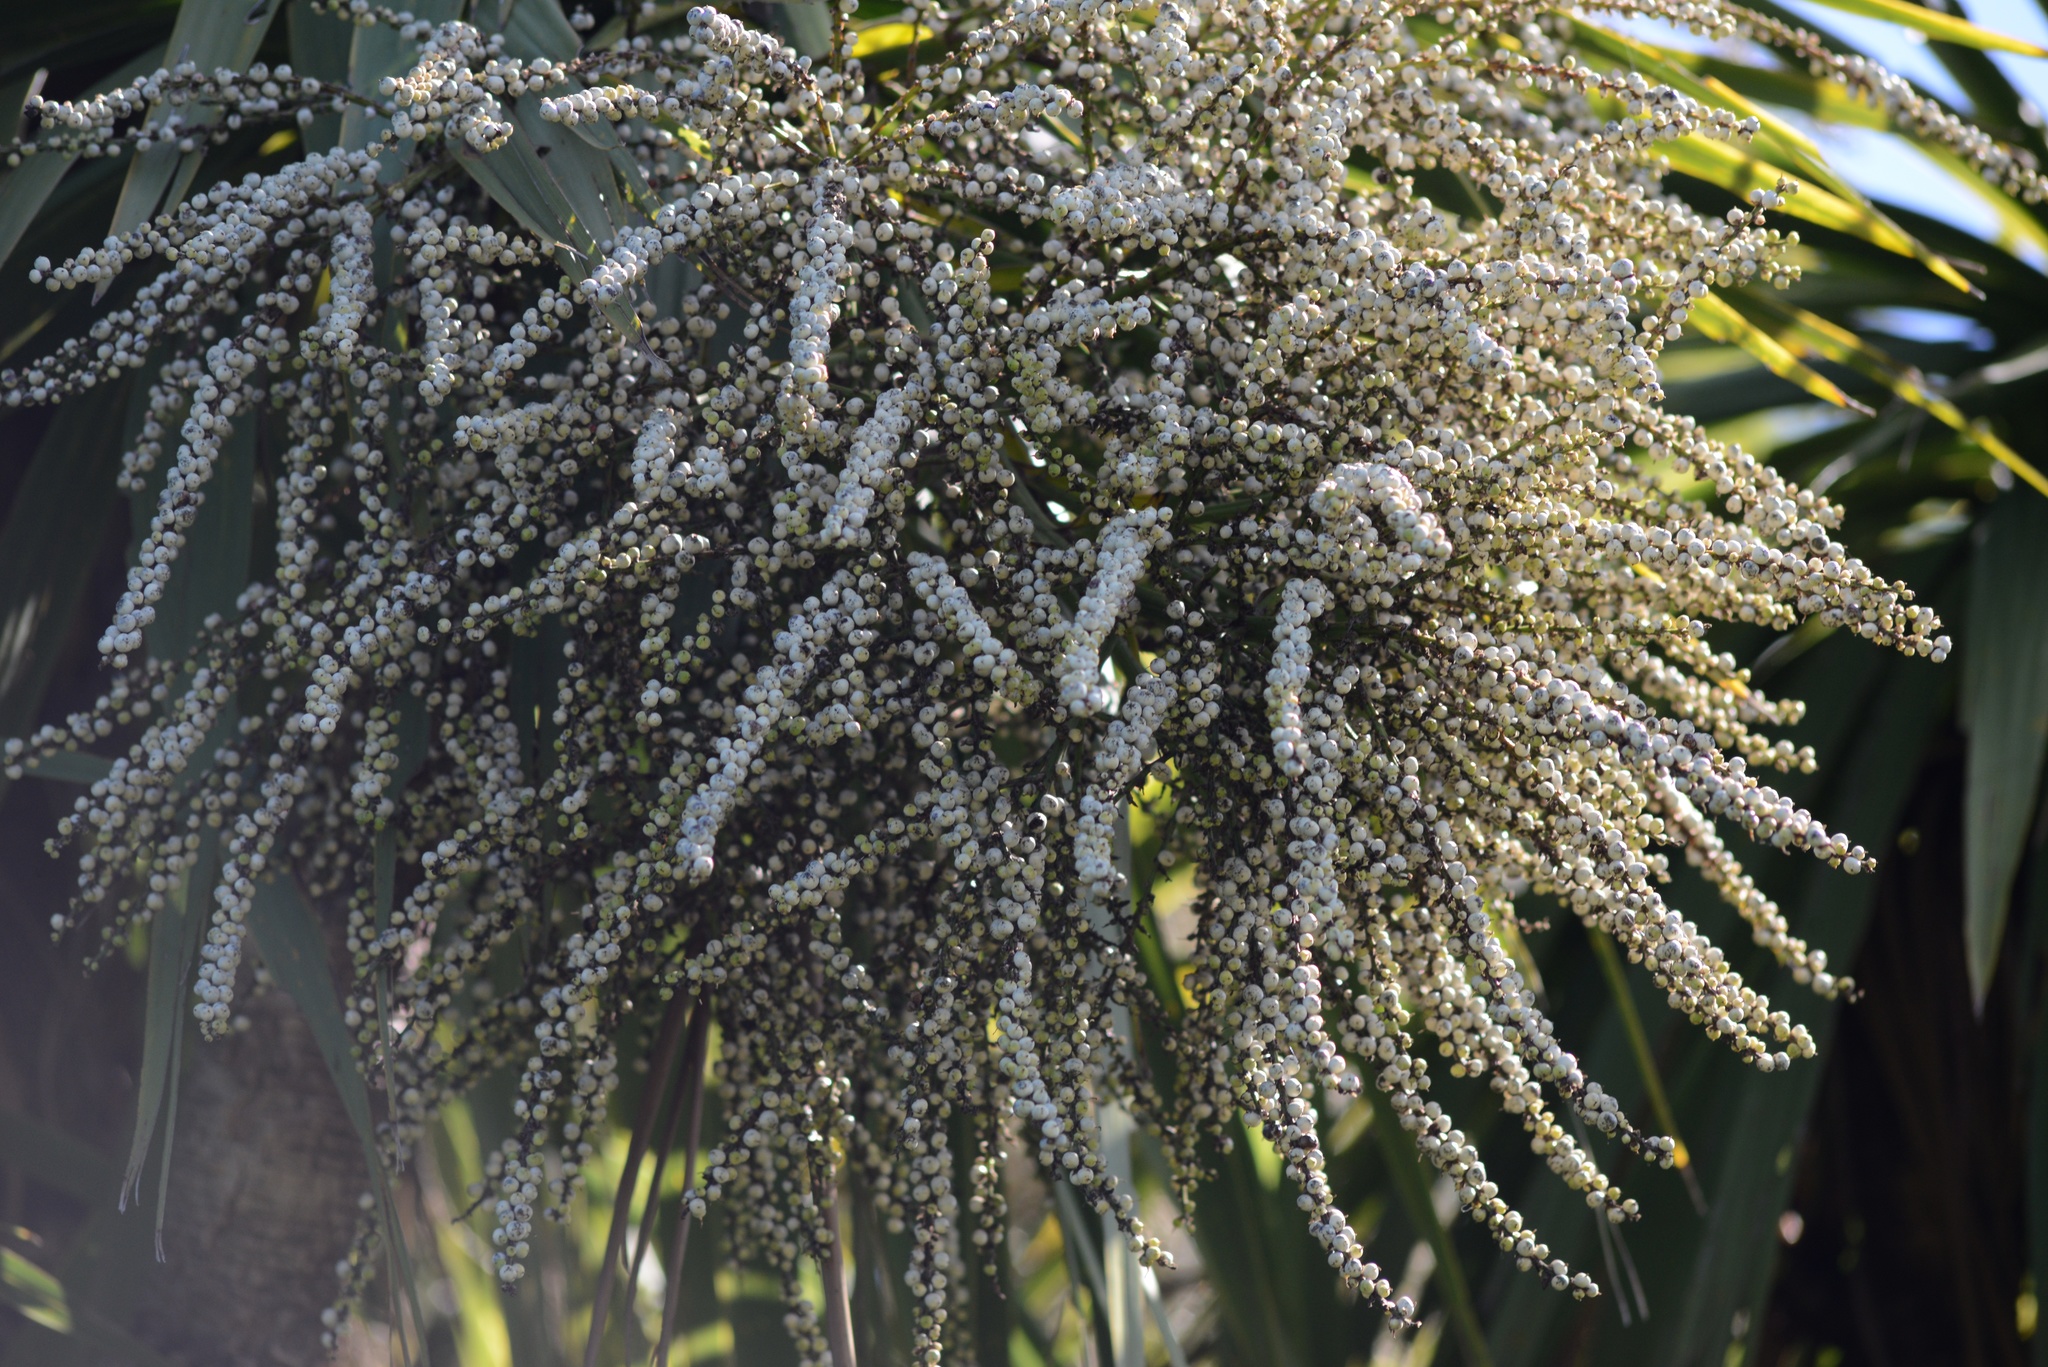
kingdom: Plantae
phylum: Tracheophyta
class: Liliopsida
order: Asparagales
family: Asparagaceae
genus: Cordyline
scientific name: Cordyline australis
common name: Cabbage-palm
